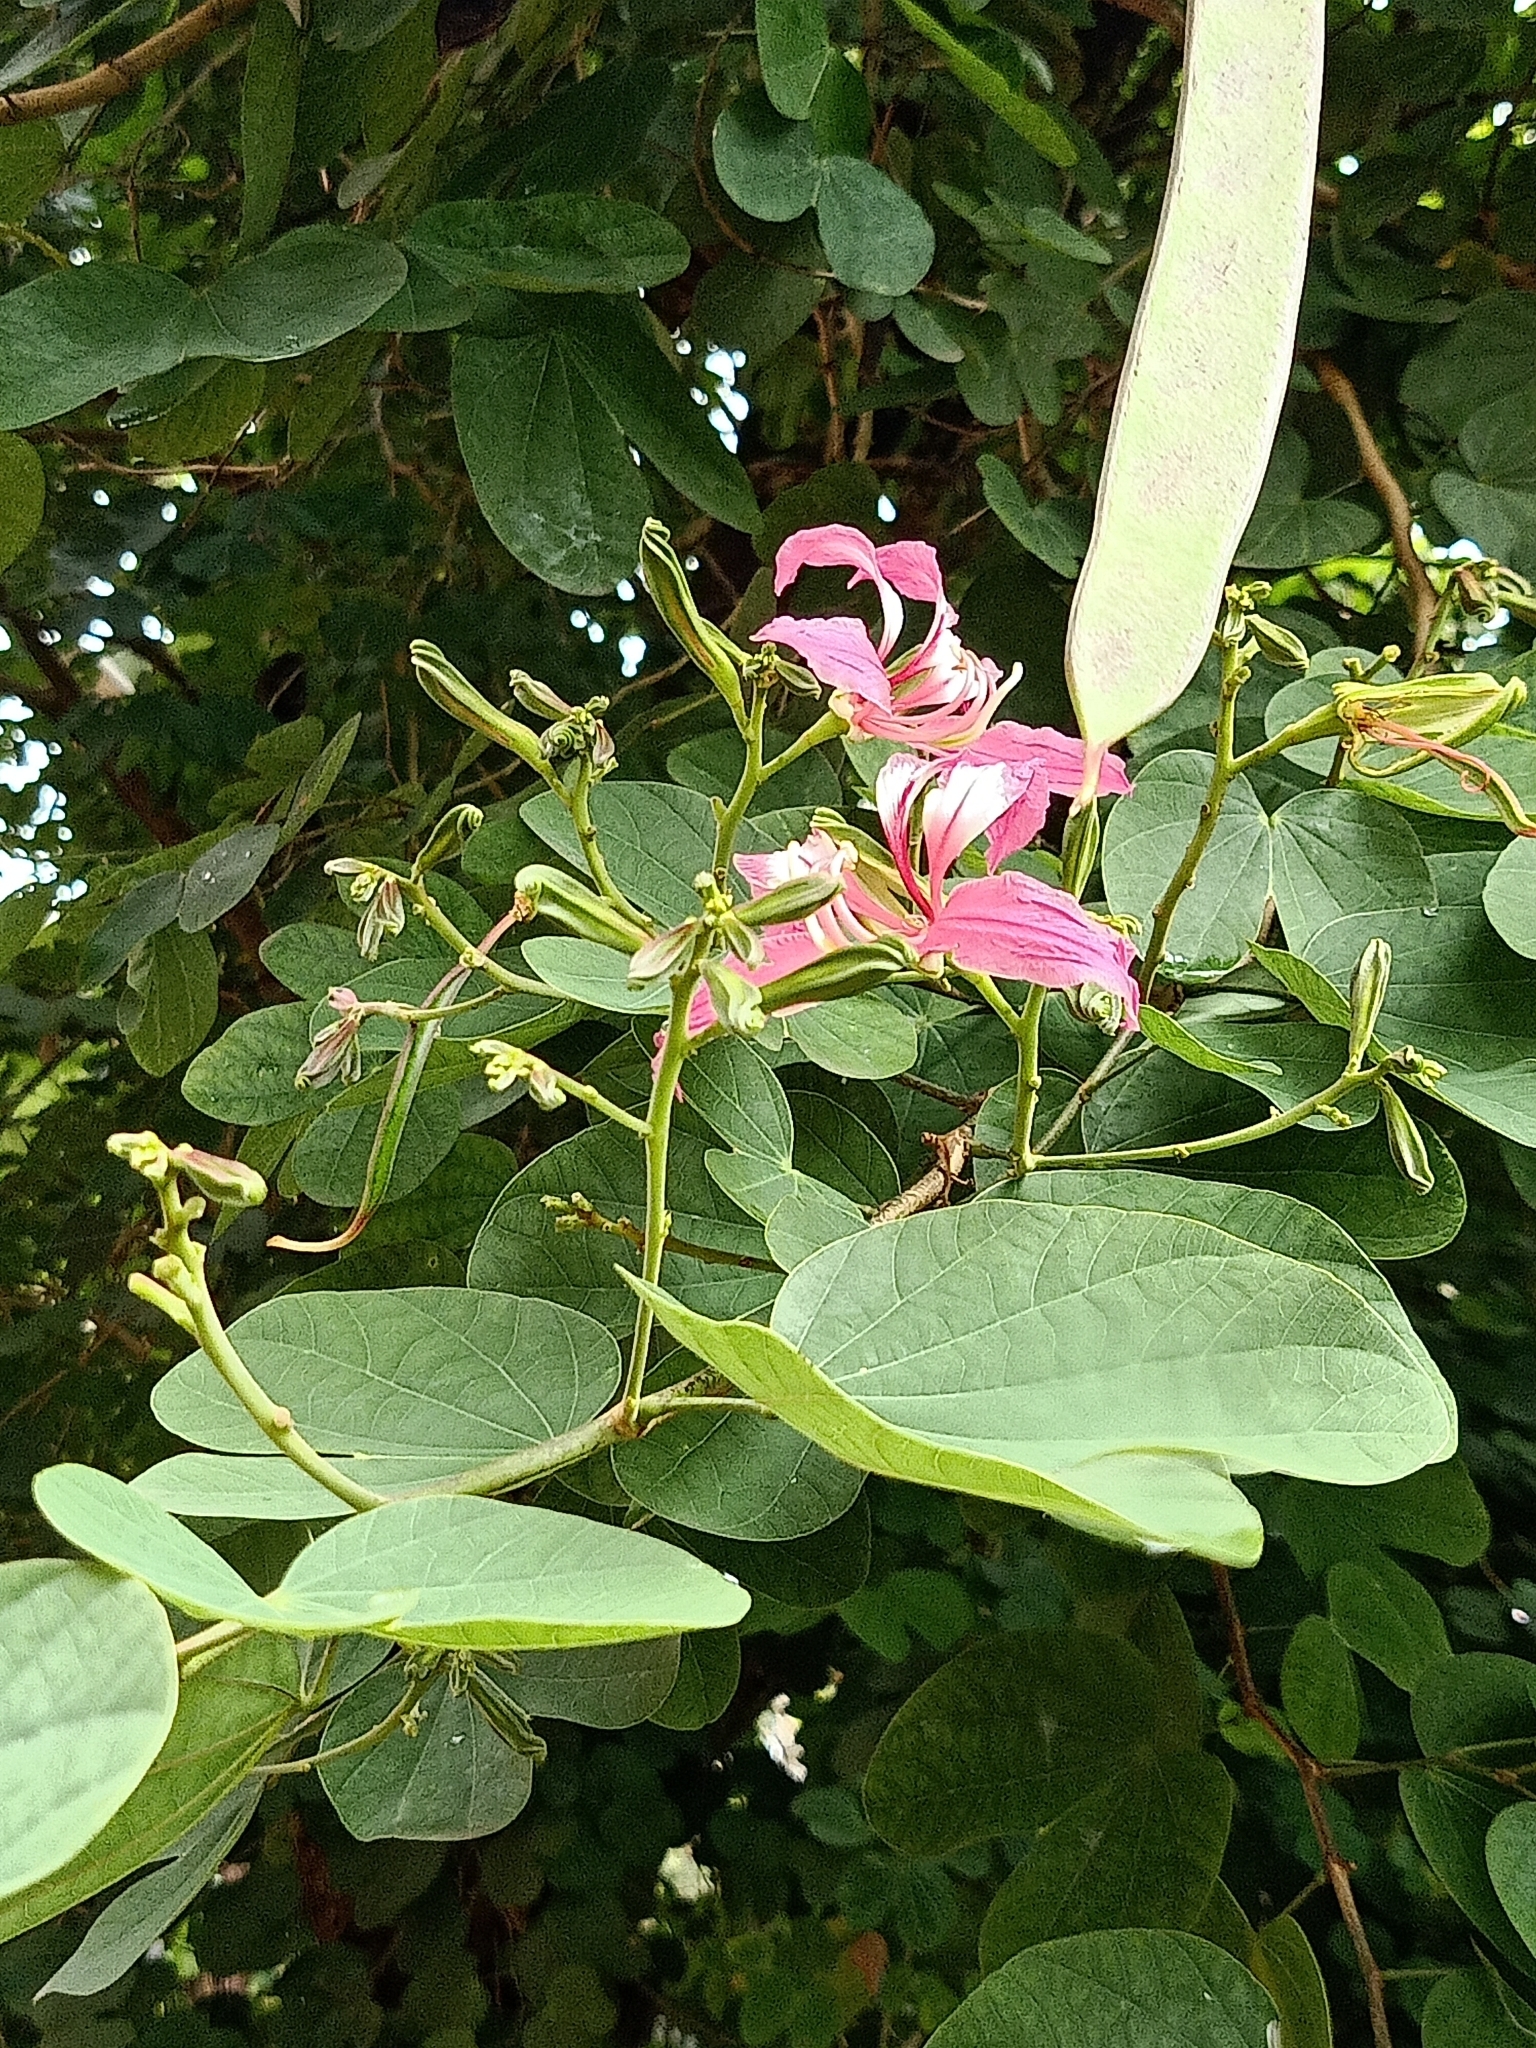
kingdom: Plantae
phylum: Tracheophyta
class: Magnoliopsida
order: Fabales
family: Fabaceae
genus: Bauhinia
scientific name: Bauhinia purpurea
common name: Butterfly-tree
